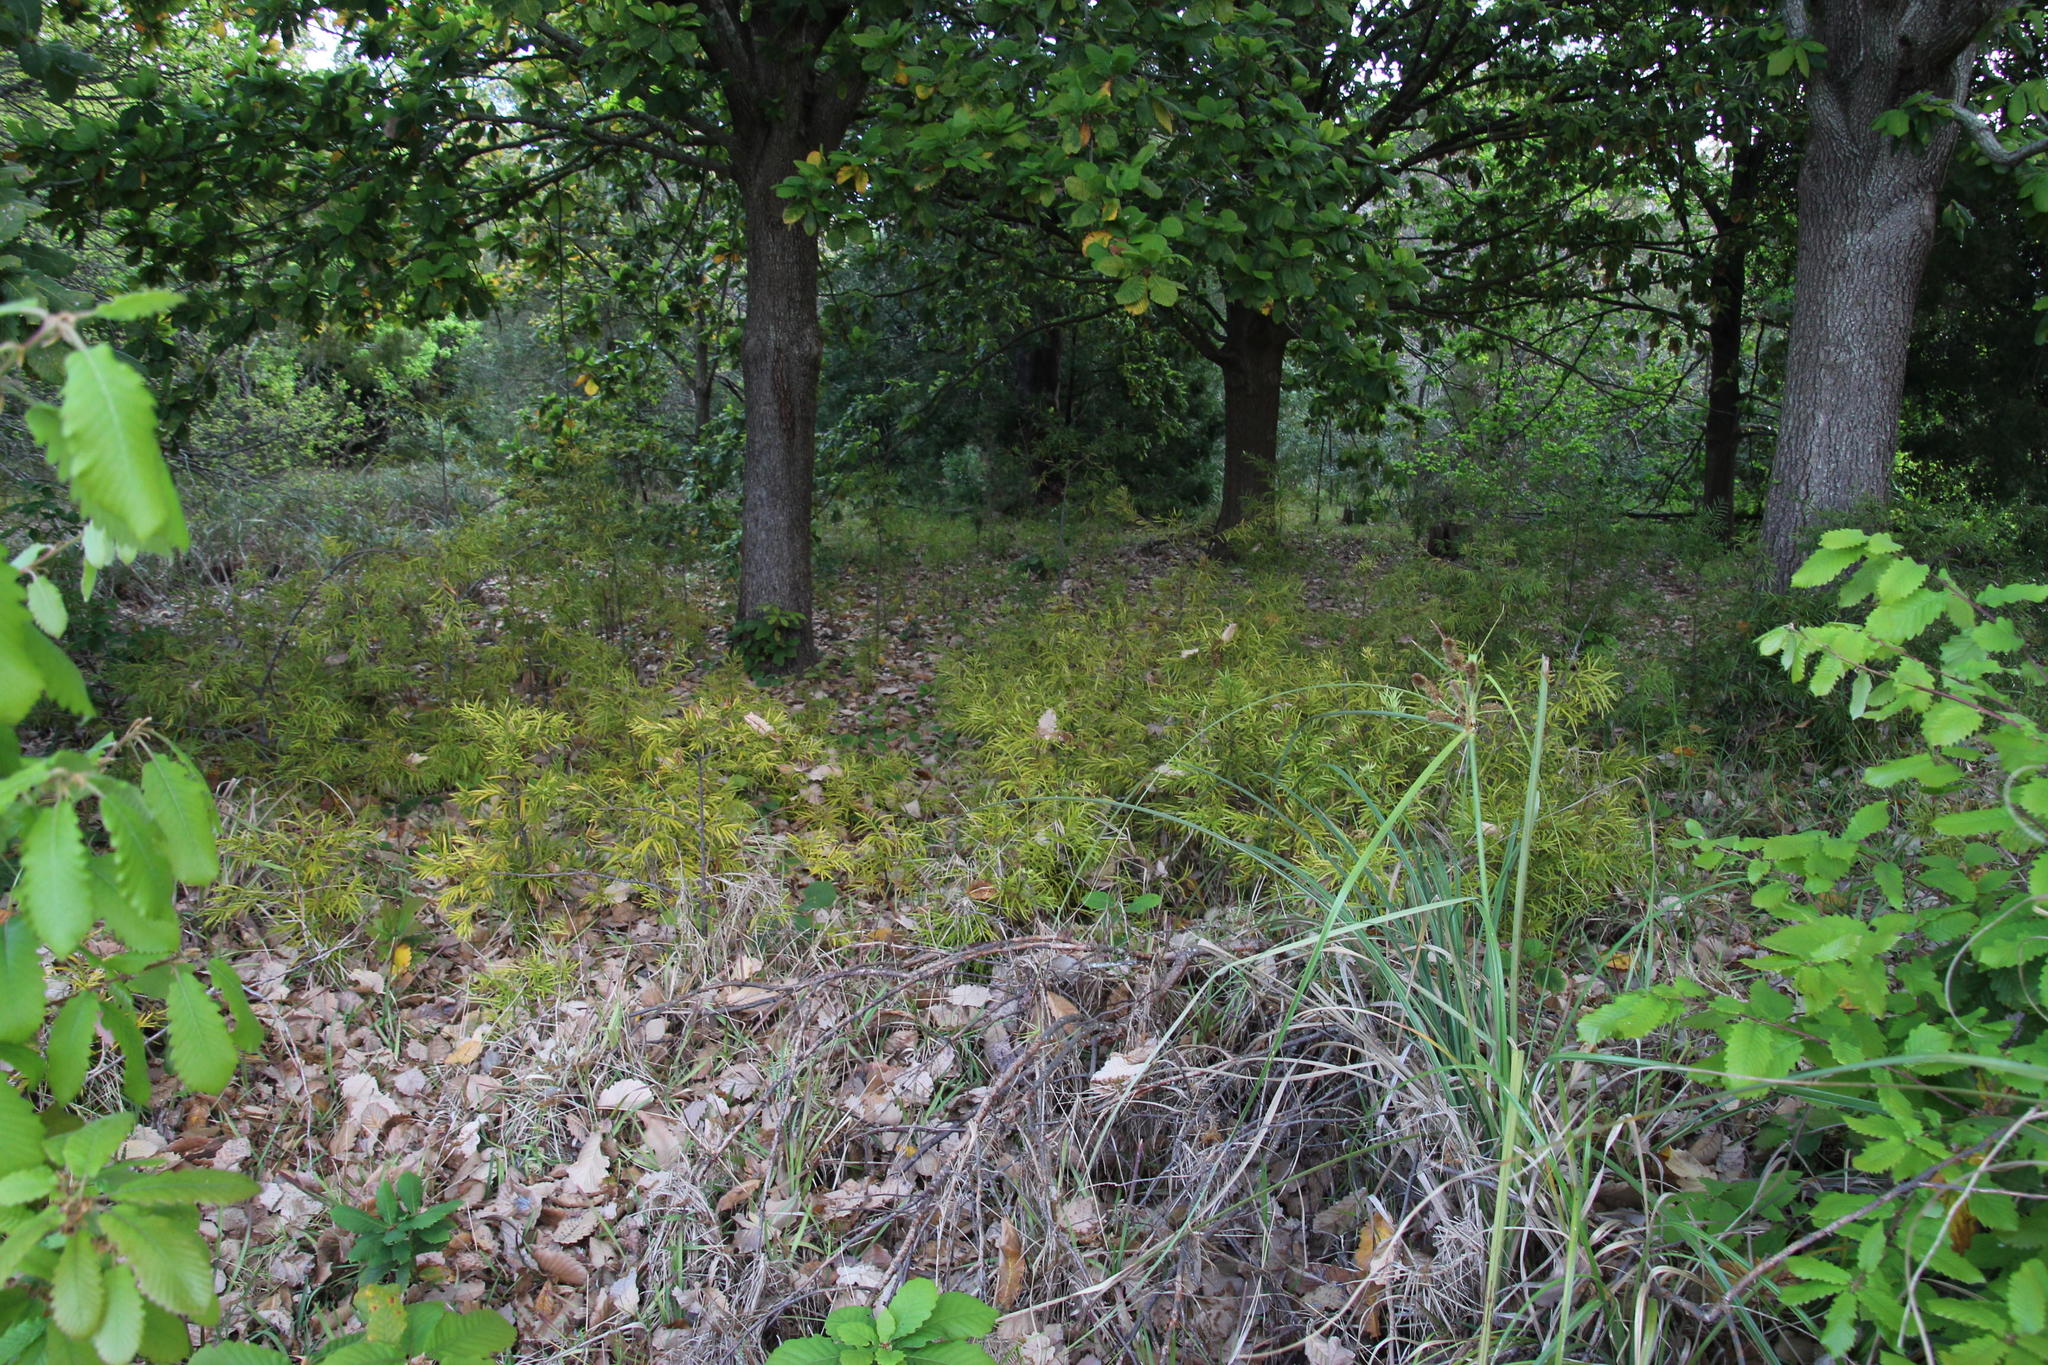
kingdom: Plantae
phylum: Tracheophyta
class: Pinopsida
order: Pinales
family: Podocarpaceae
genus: Afrocarpus
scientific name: Afrocarpus falcatus
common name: Bastard yellowwood
